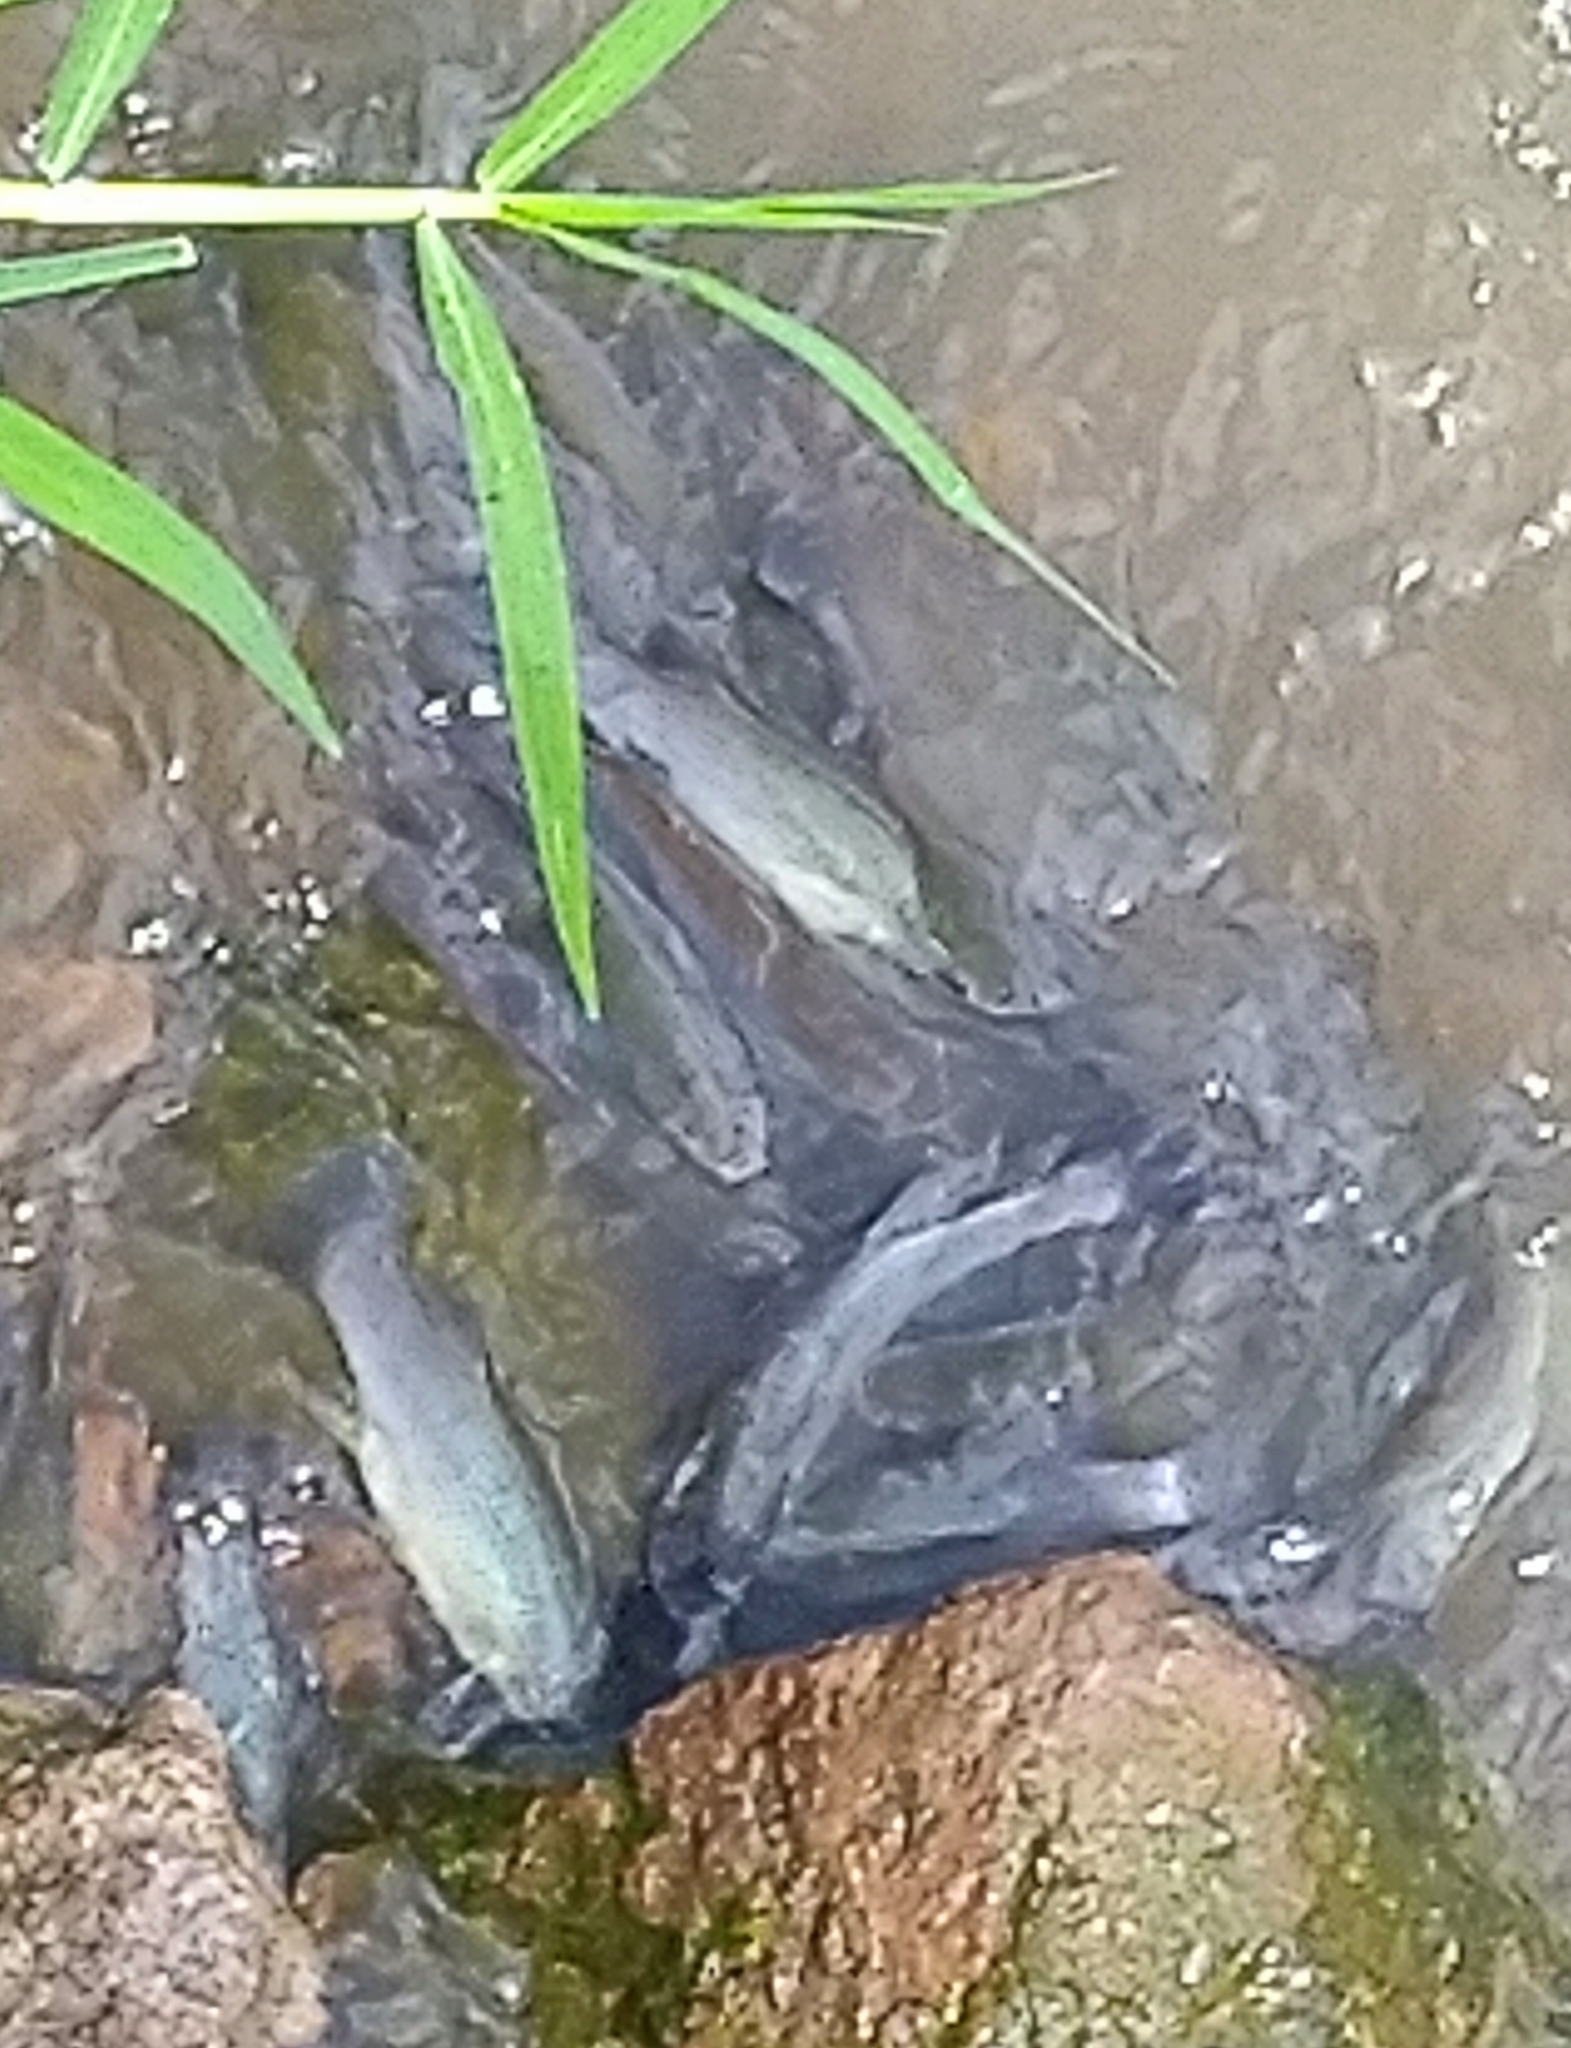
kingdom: Animalia
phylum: Chordata
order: Cyprinodontiformes
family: Goodeidae
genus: Goodea
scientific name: Goodea atripinnis
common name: Blackfin goodea
